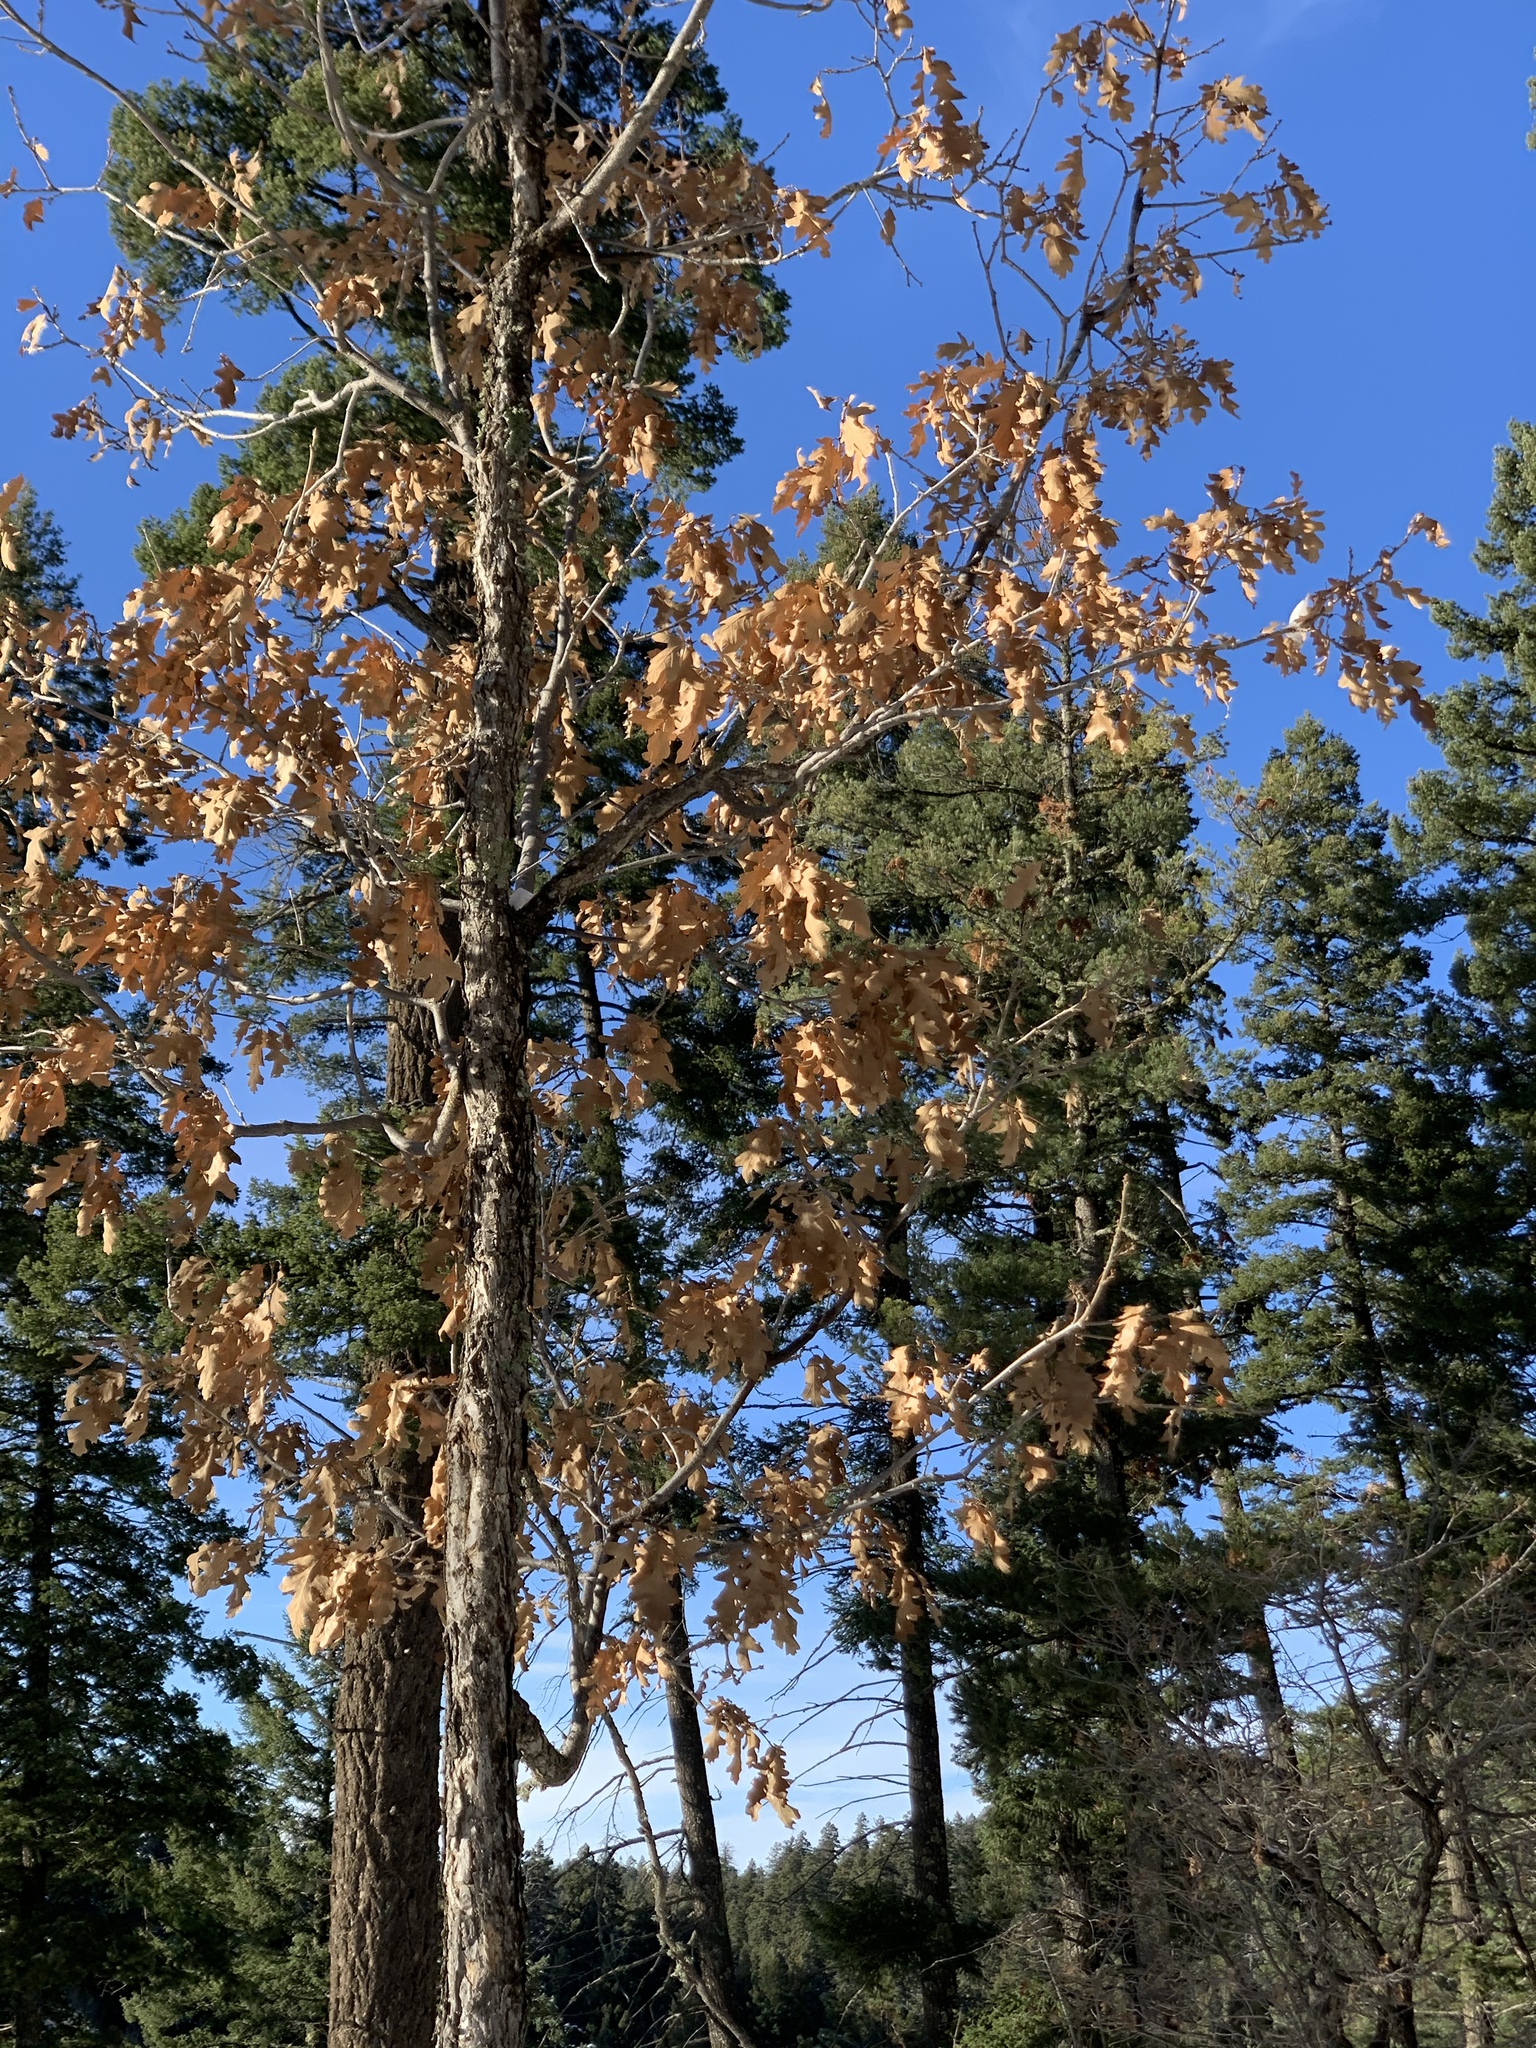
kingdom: Plantae
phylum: Tracheophyta
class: Magnoliopsida
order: Fagales
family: Fagaceae
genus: Quercus
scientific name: Quercus gambelii
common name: Gambel oak
